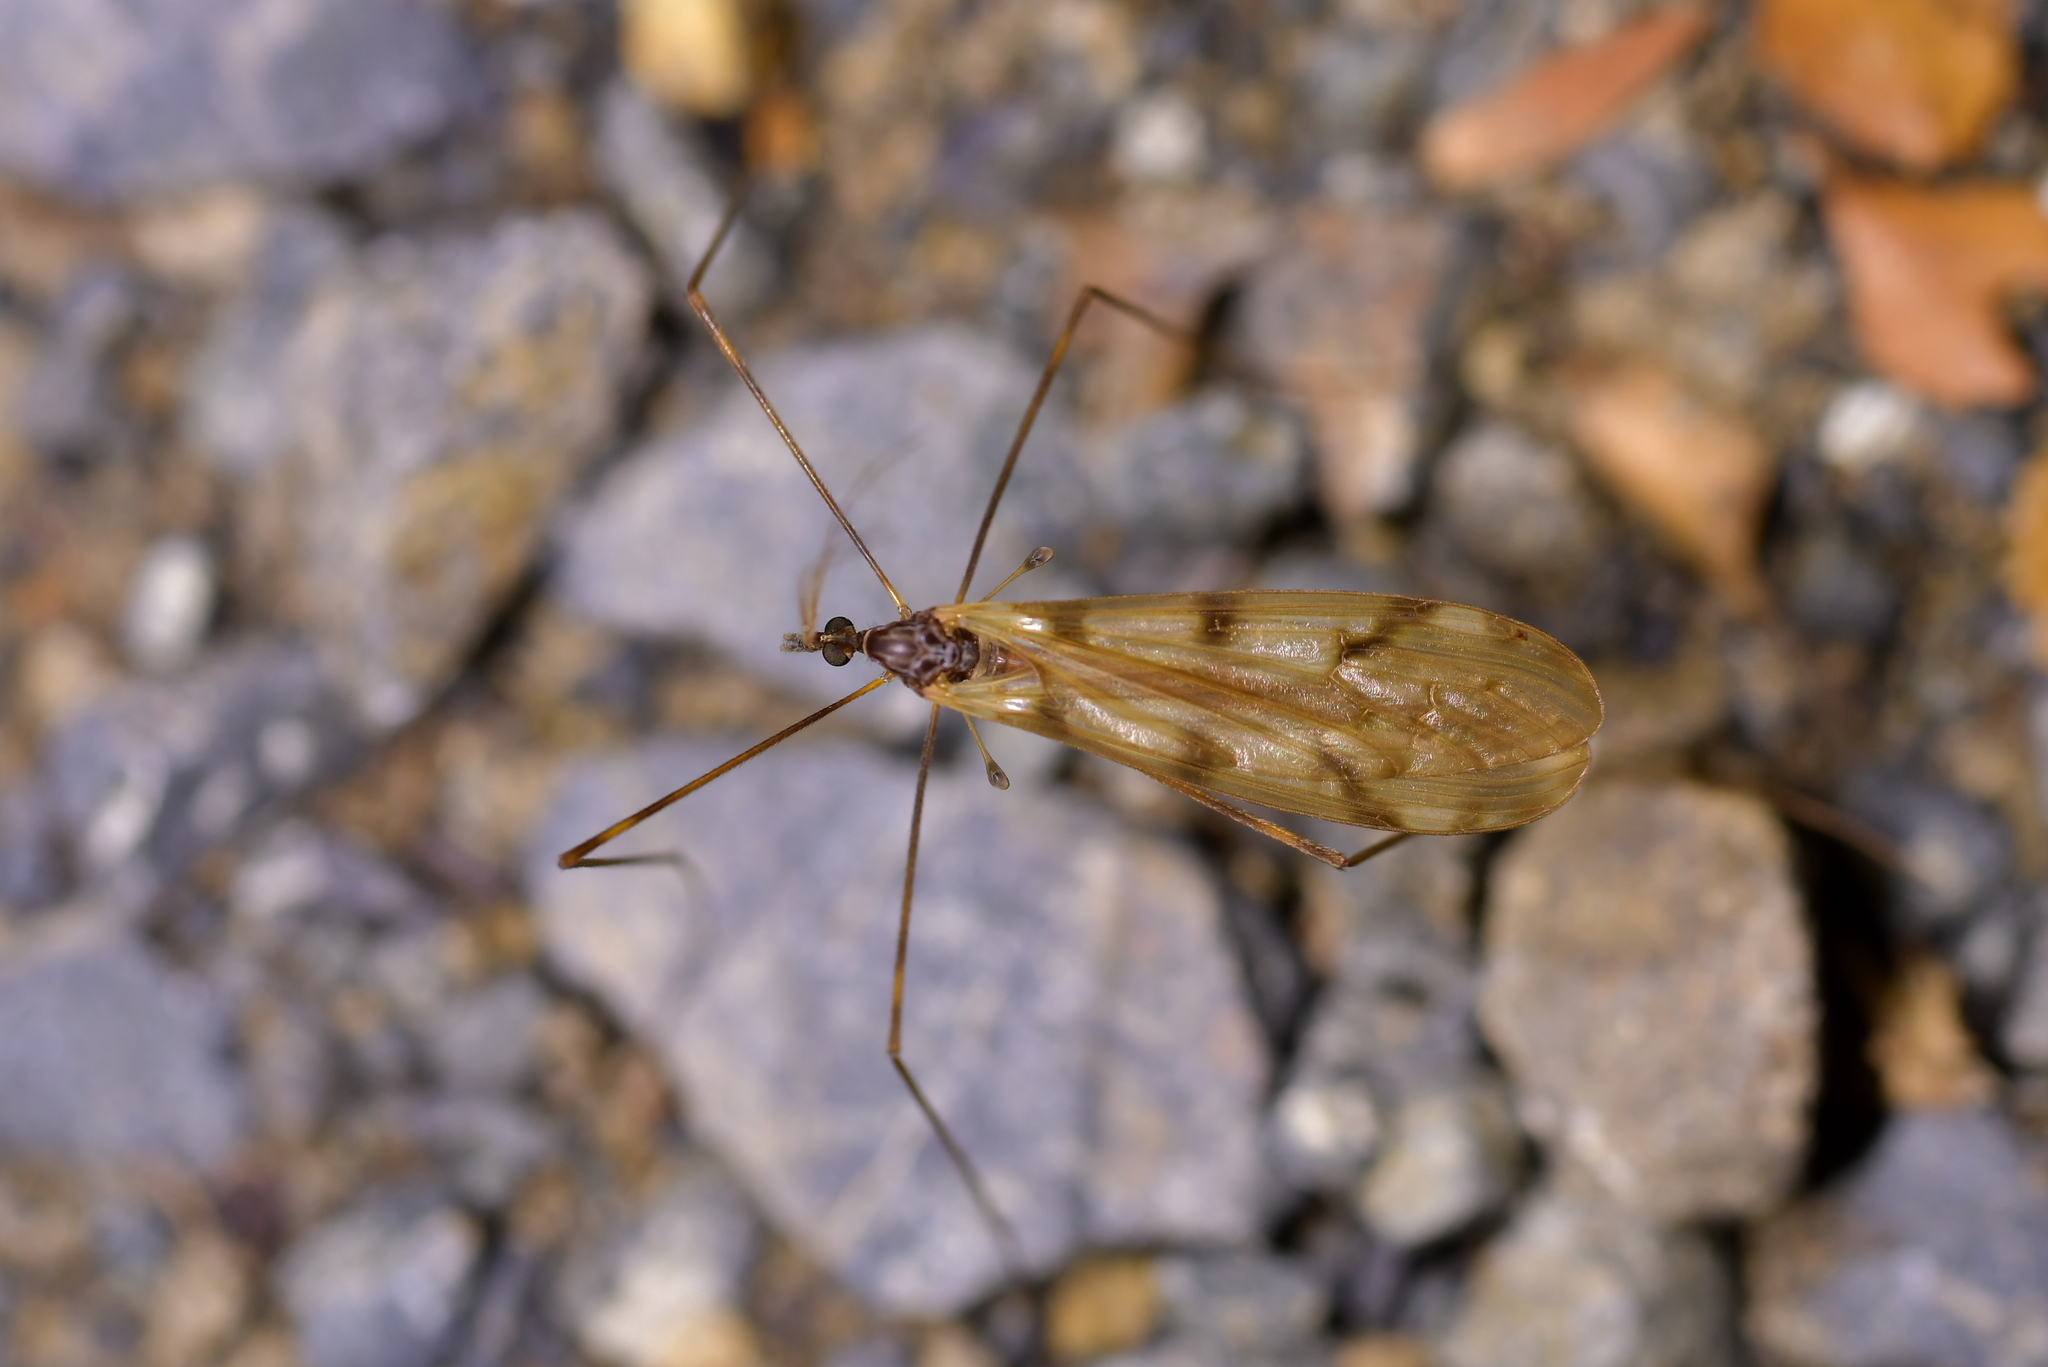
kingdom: Animalia
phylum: Arthropoda
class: Insecta
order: Diptera
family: Limoniidae
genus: Austrolimnophila
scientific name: Austrolimnophila cyatheti
